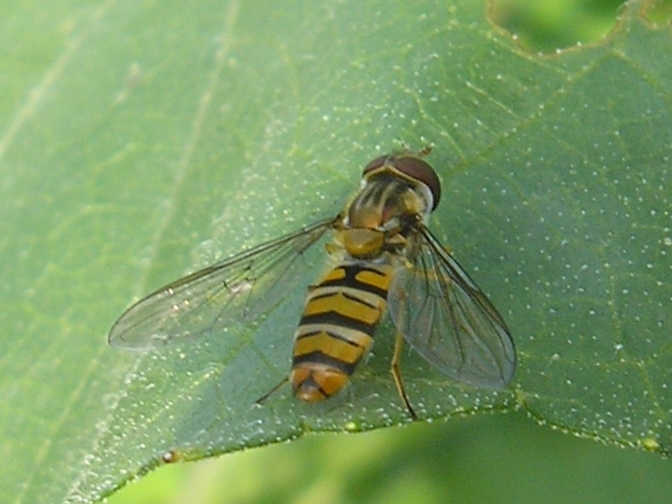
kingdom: Animalia
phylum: Arthropoda
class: Insecta
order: Diptera
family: Syrphidae
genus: Episyrphus
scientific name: Episyrphus balteatus
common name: Marmalade hoverfly
